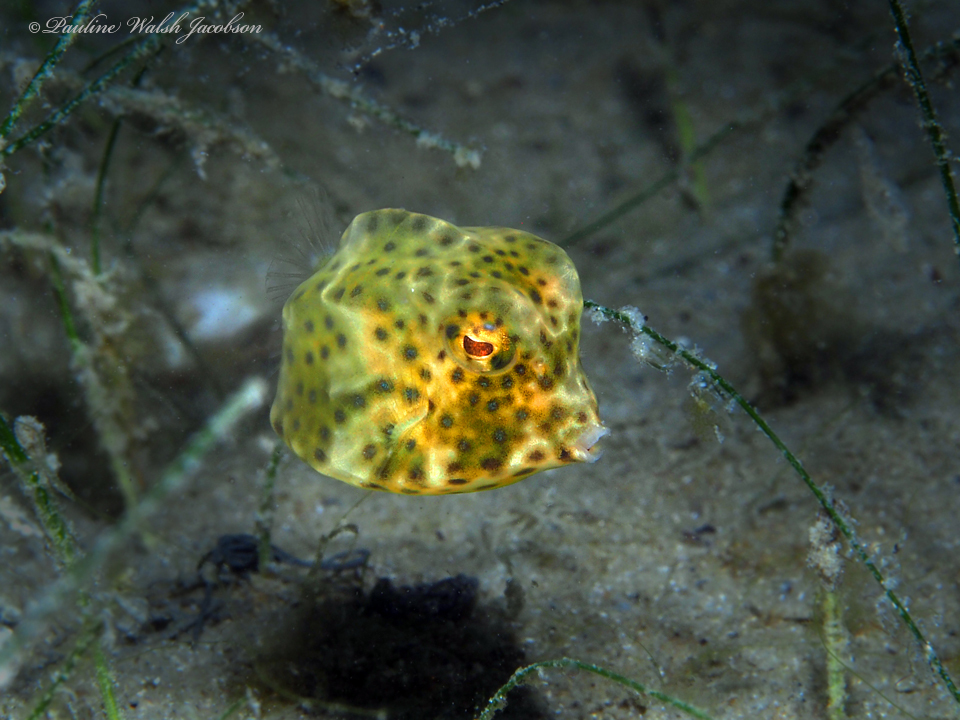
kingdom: Animalia
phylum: Chordata
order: Tetraodontiformes
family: Ostraciidae
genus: Lactophrys
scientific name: Lactophrys trigonus
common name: Buffalo trunkfish
